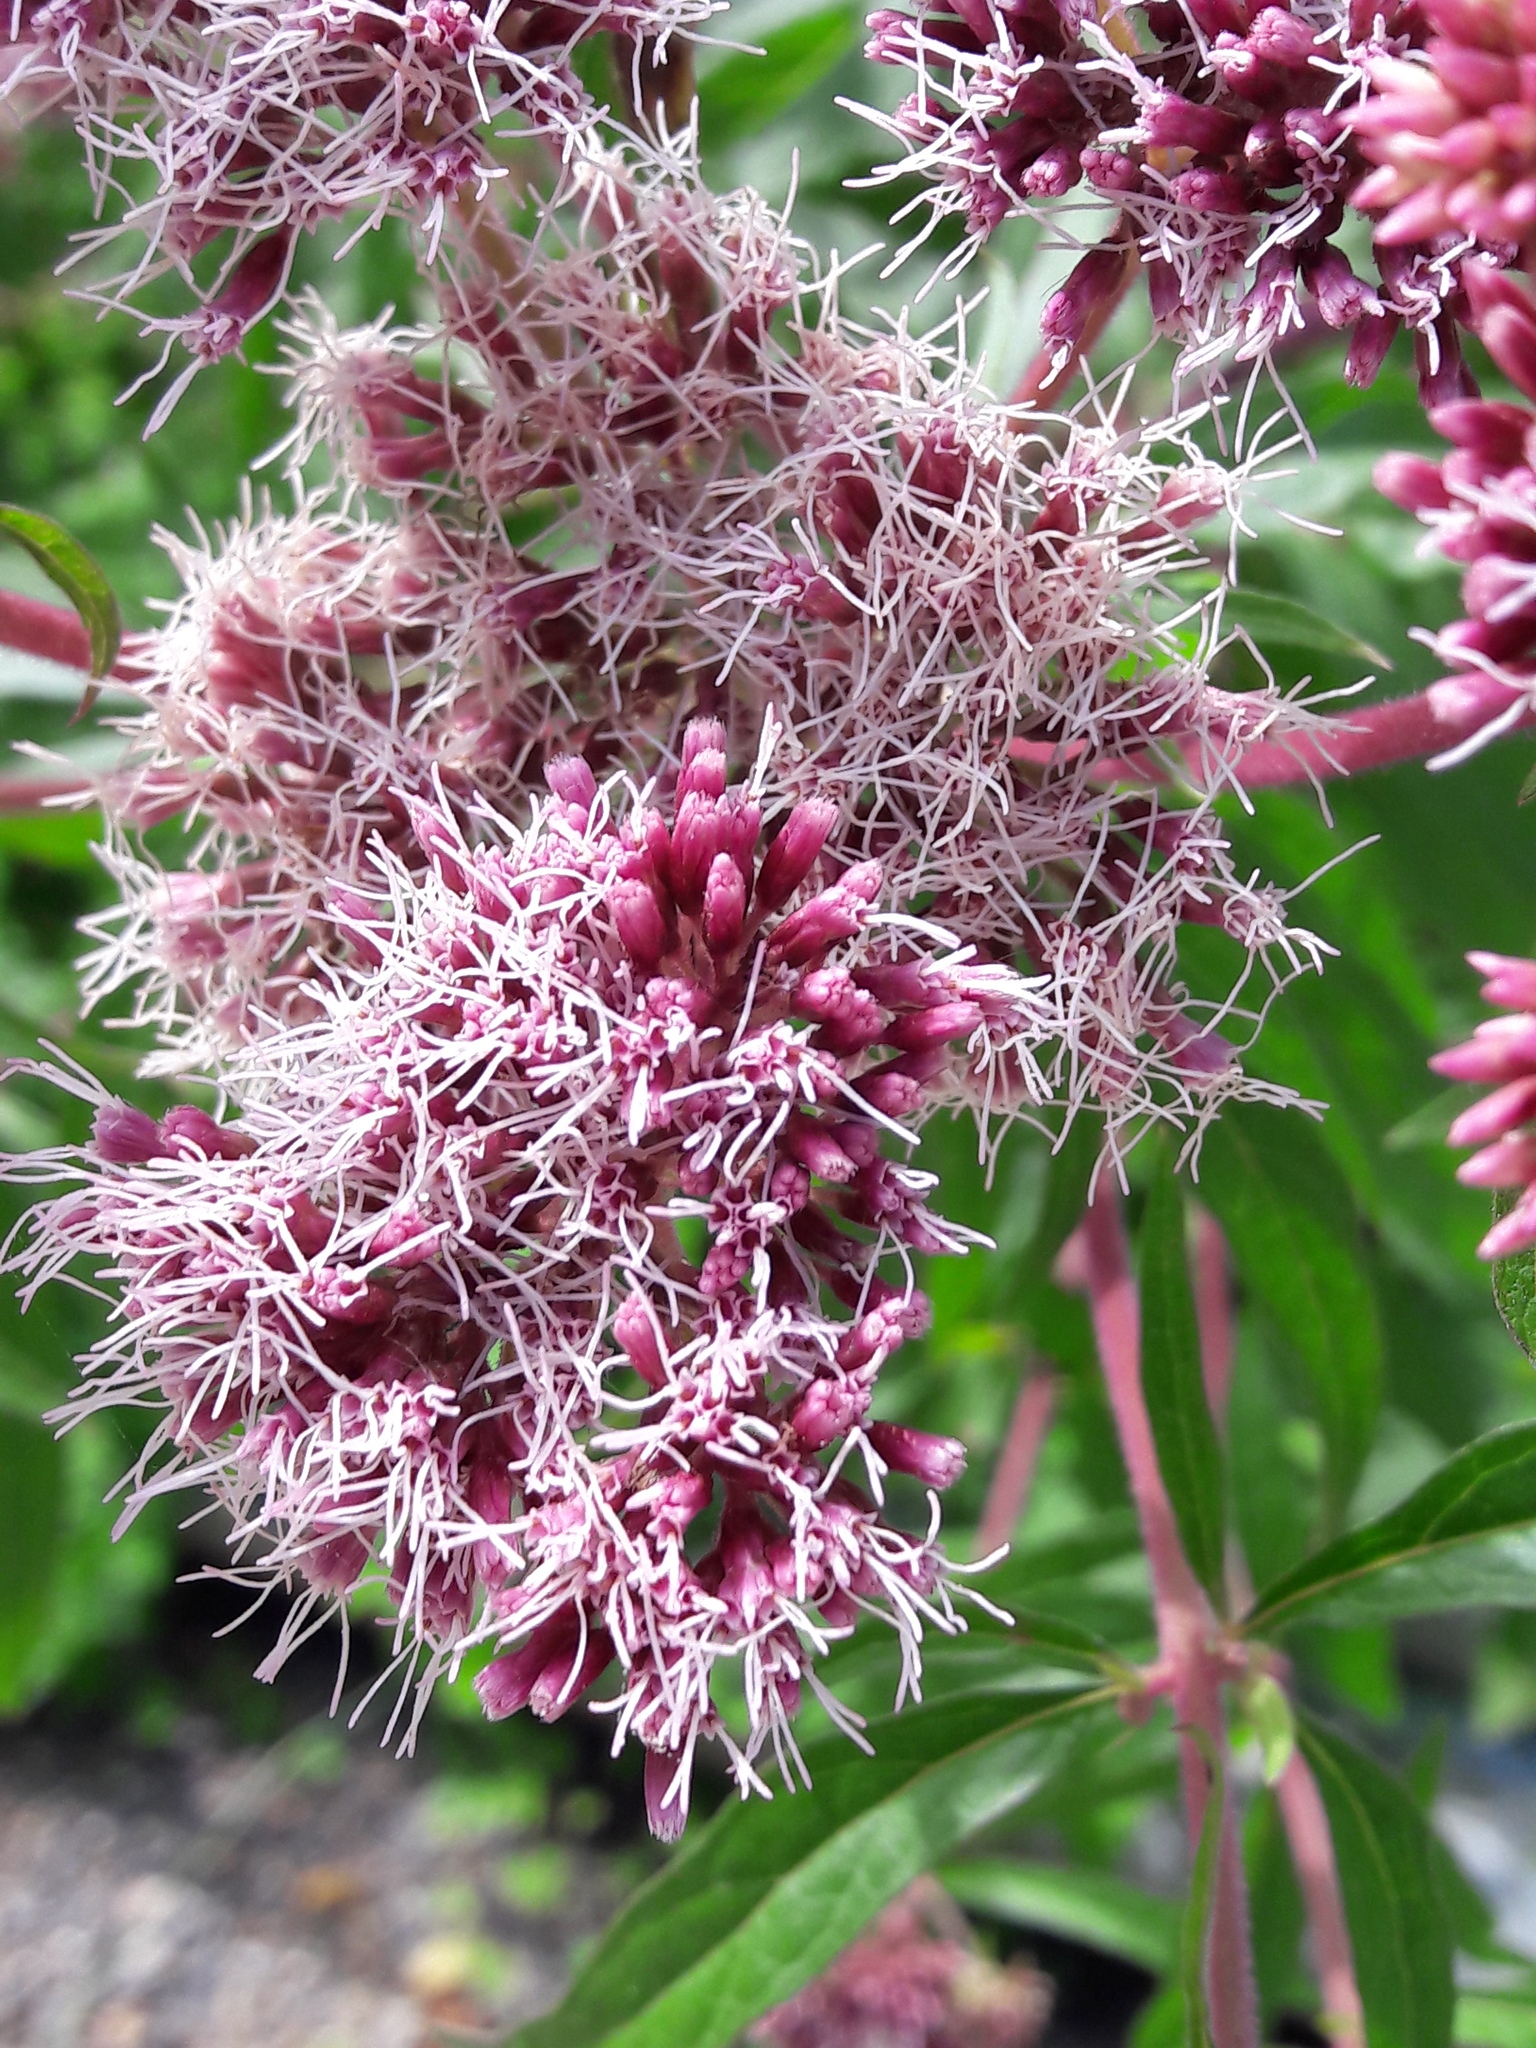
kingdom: Plantae
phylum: Tracheophyta
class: Magnoliopsida
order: Asterales
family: Asteraceae
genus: Eupatorium
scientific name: Eupatorium cannabinum
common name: Hemp-agrimony
